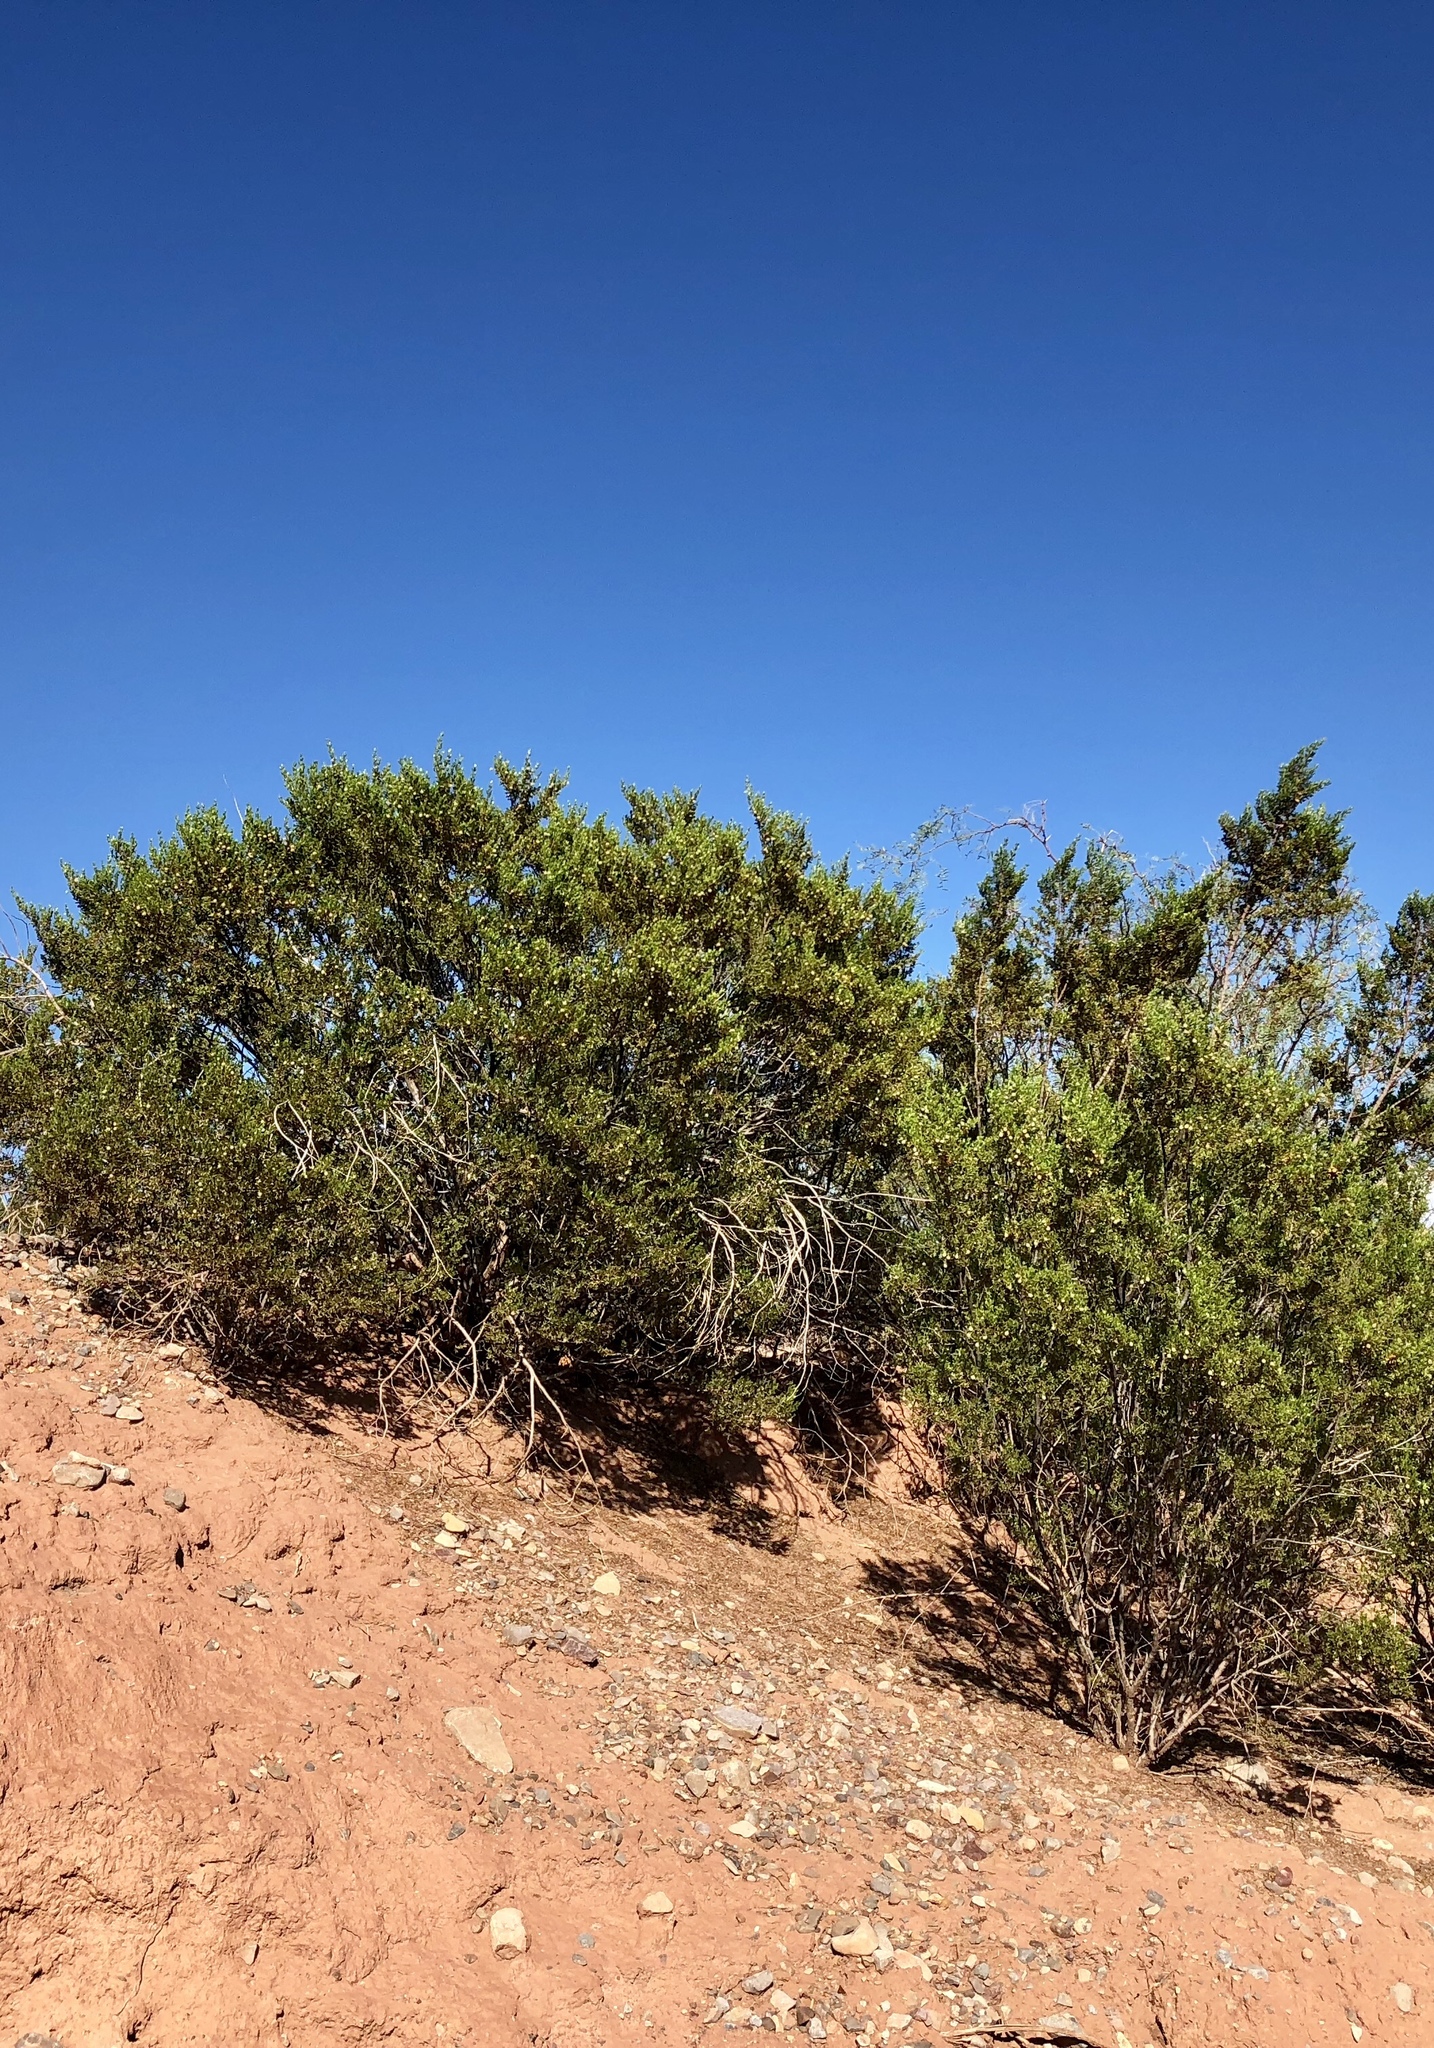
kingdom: Plantae
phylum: Tracheophyta
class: Magnoliopsida
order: Zygophyllales
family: Zygophyllaceae
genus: Larrea
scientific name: Larrea tridentata
